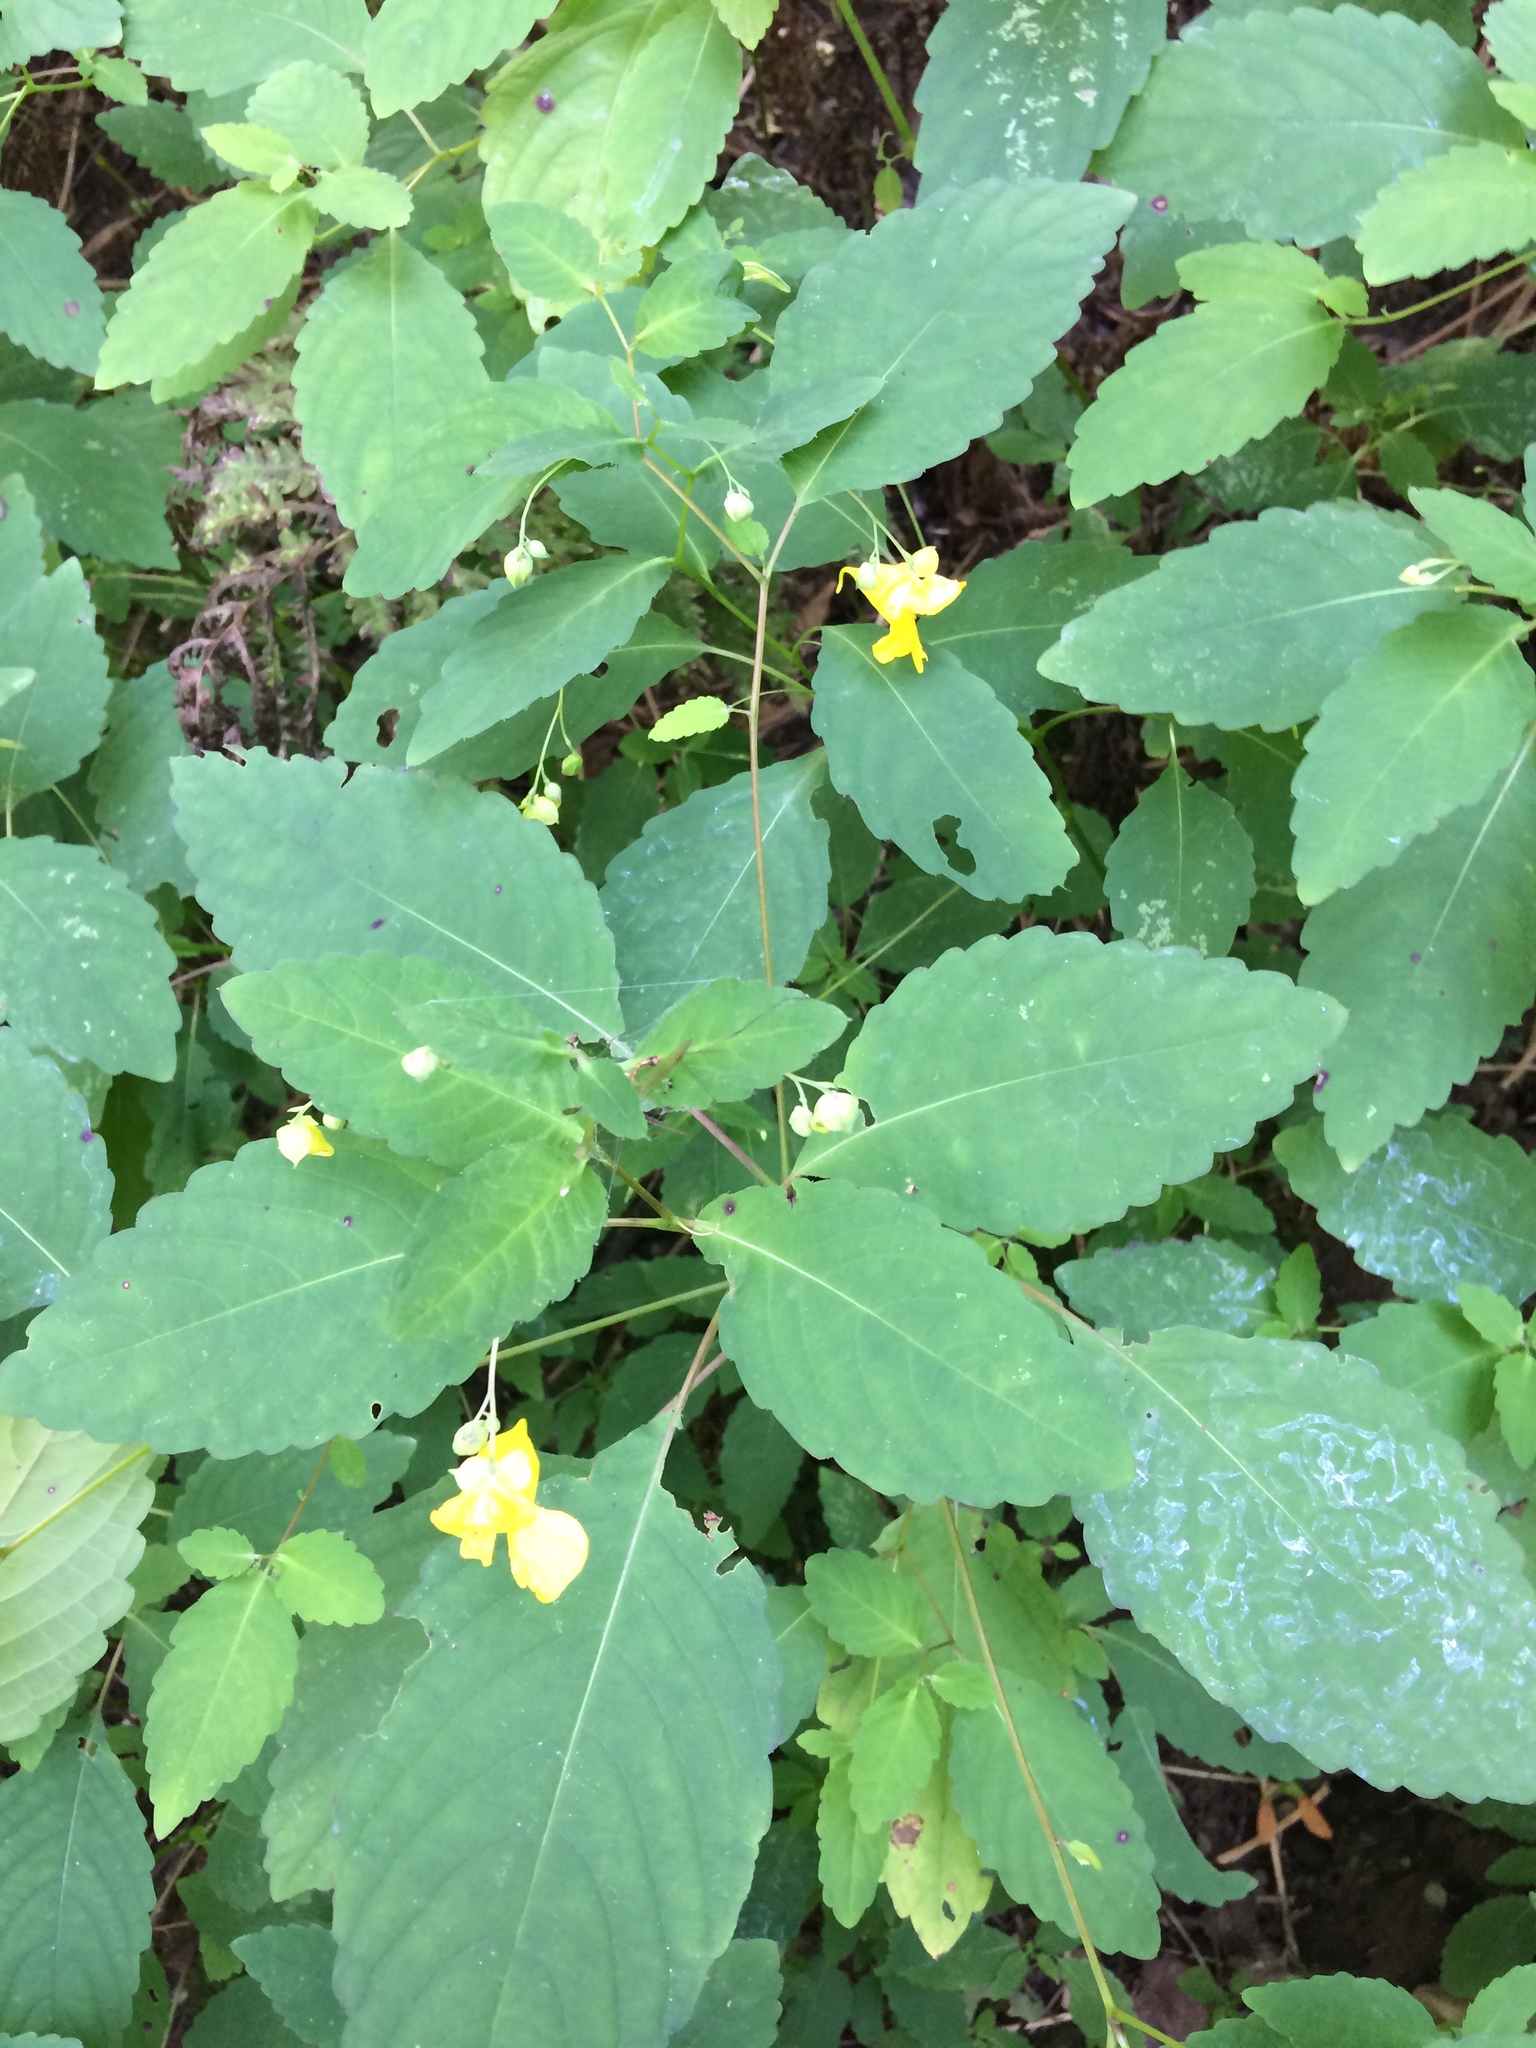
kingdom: Plantae
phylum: Tracheophyta
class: Magnoliopsida
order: Ericales
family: Balsaminaceae
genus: Impatiens
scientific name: Impatiens pallida
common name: Pale snapweed
